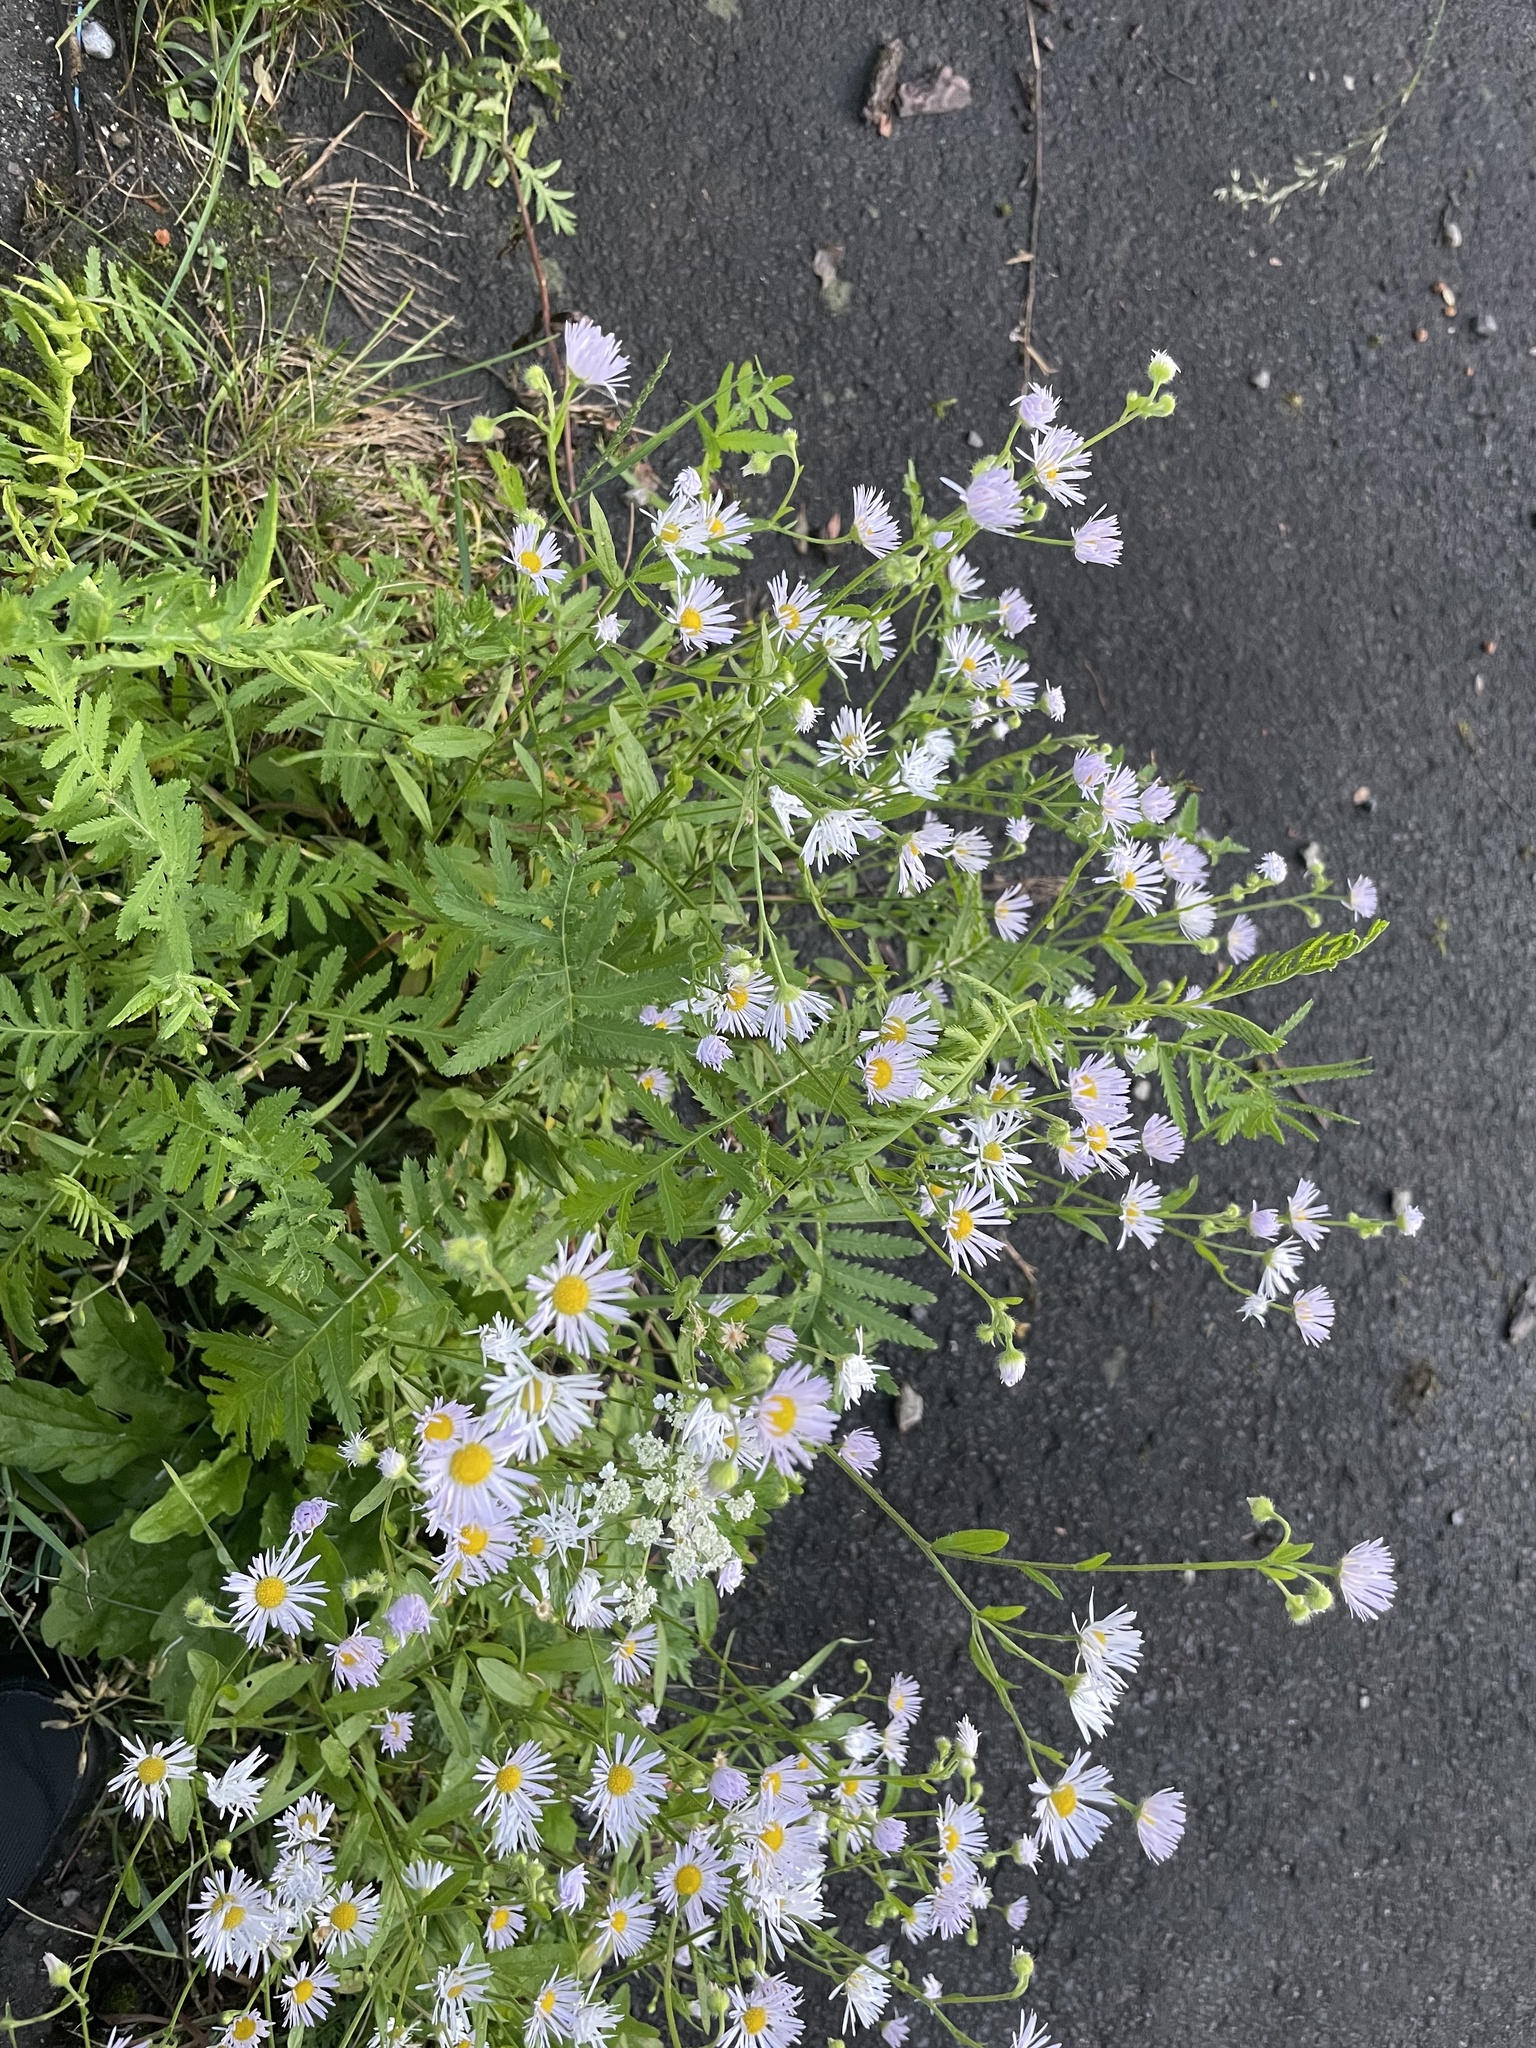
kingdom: Plantae
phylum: Tracheophyta
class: Magnoliopsida
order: Asterales
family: Asteraceae
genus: Erigeron
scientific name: Erigeron annuus
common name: Tall fleabane
